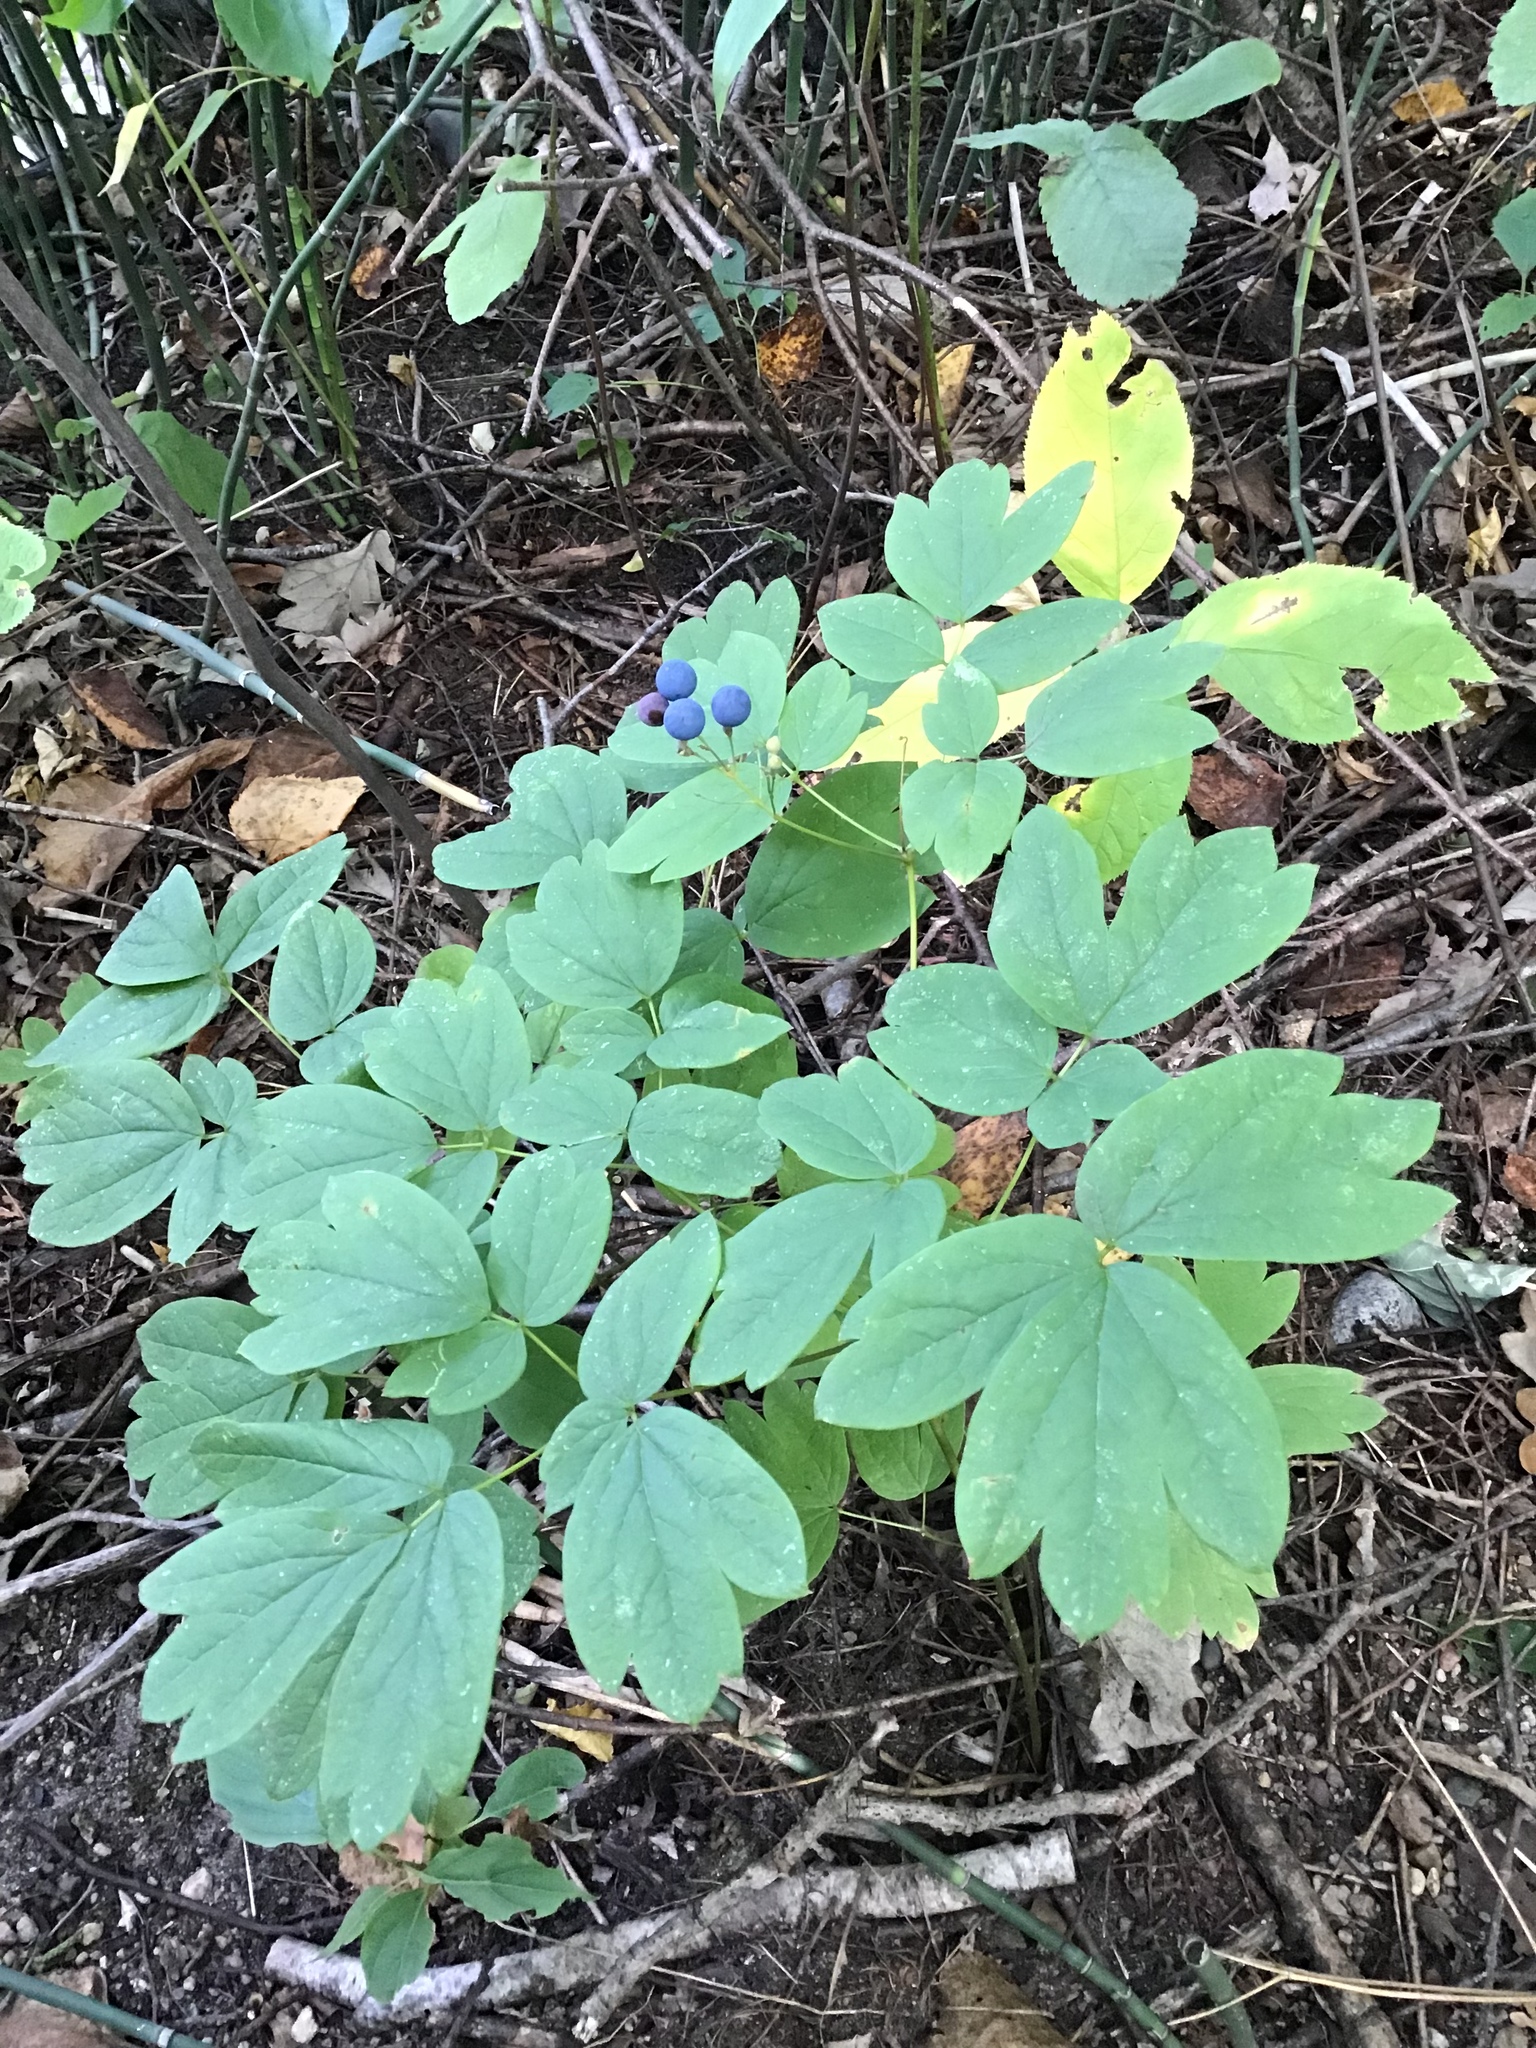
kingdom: Plantae
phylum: Tracheophyta
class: Magnoliopsida
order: Ranunculales
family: Berberidaceae
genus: Caulophyllum
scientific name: Caulophyllum thalictroides
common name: Blue cohosh
